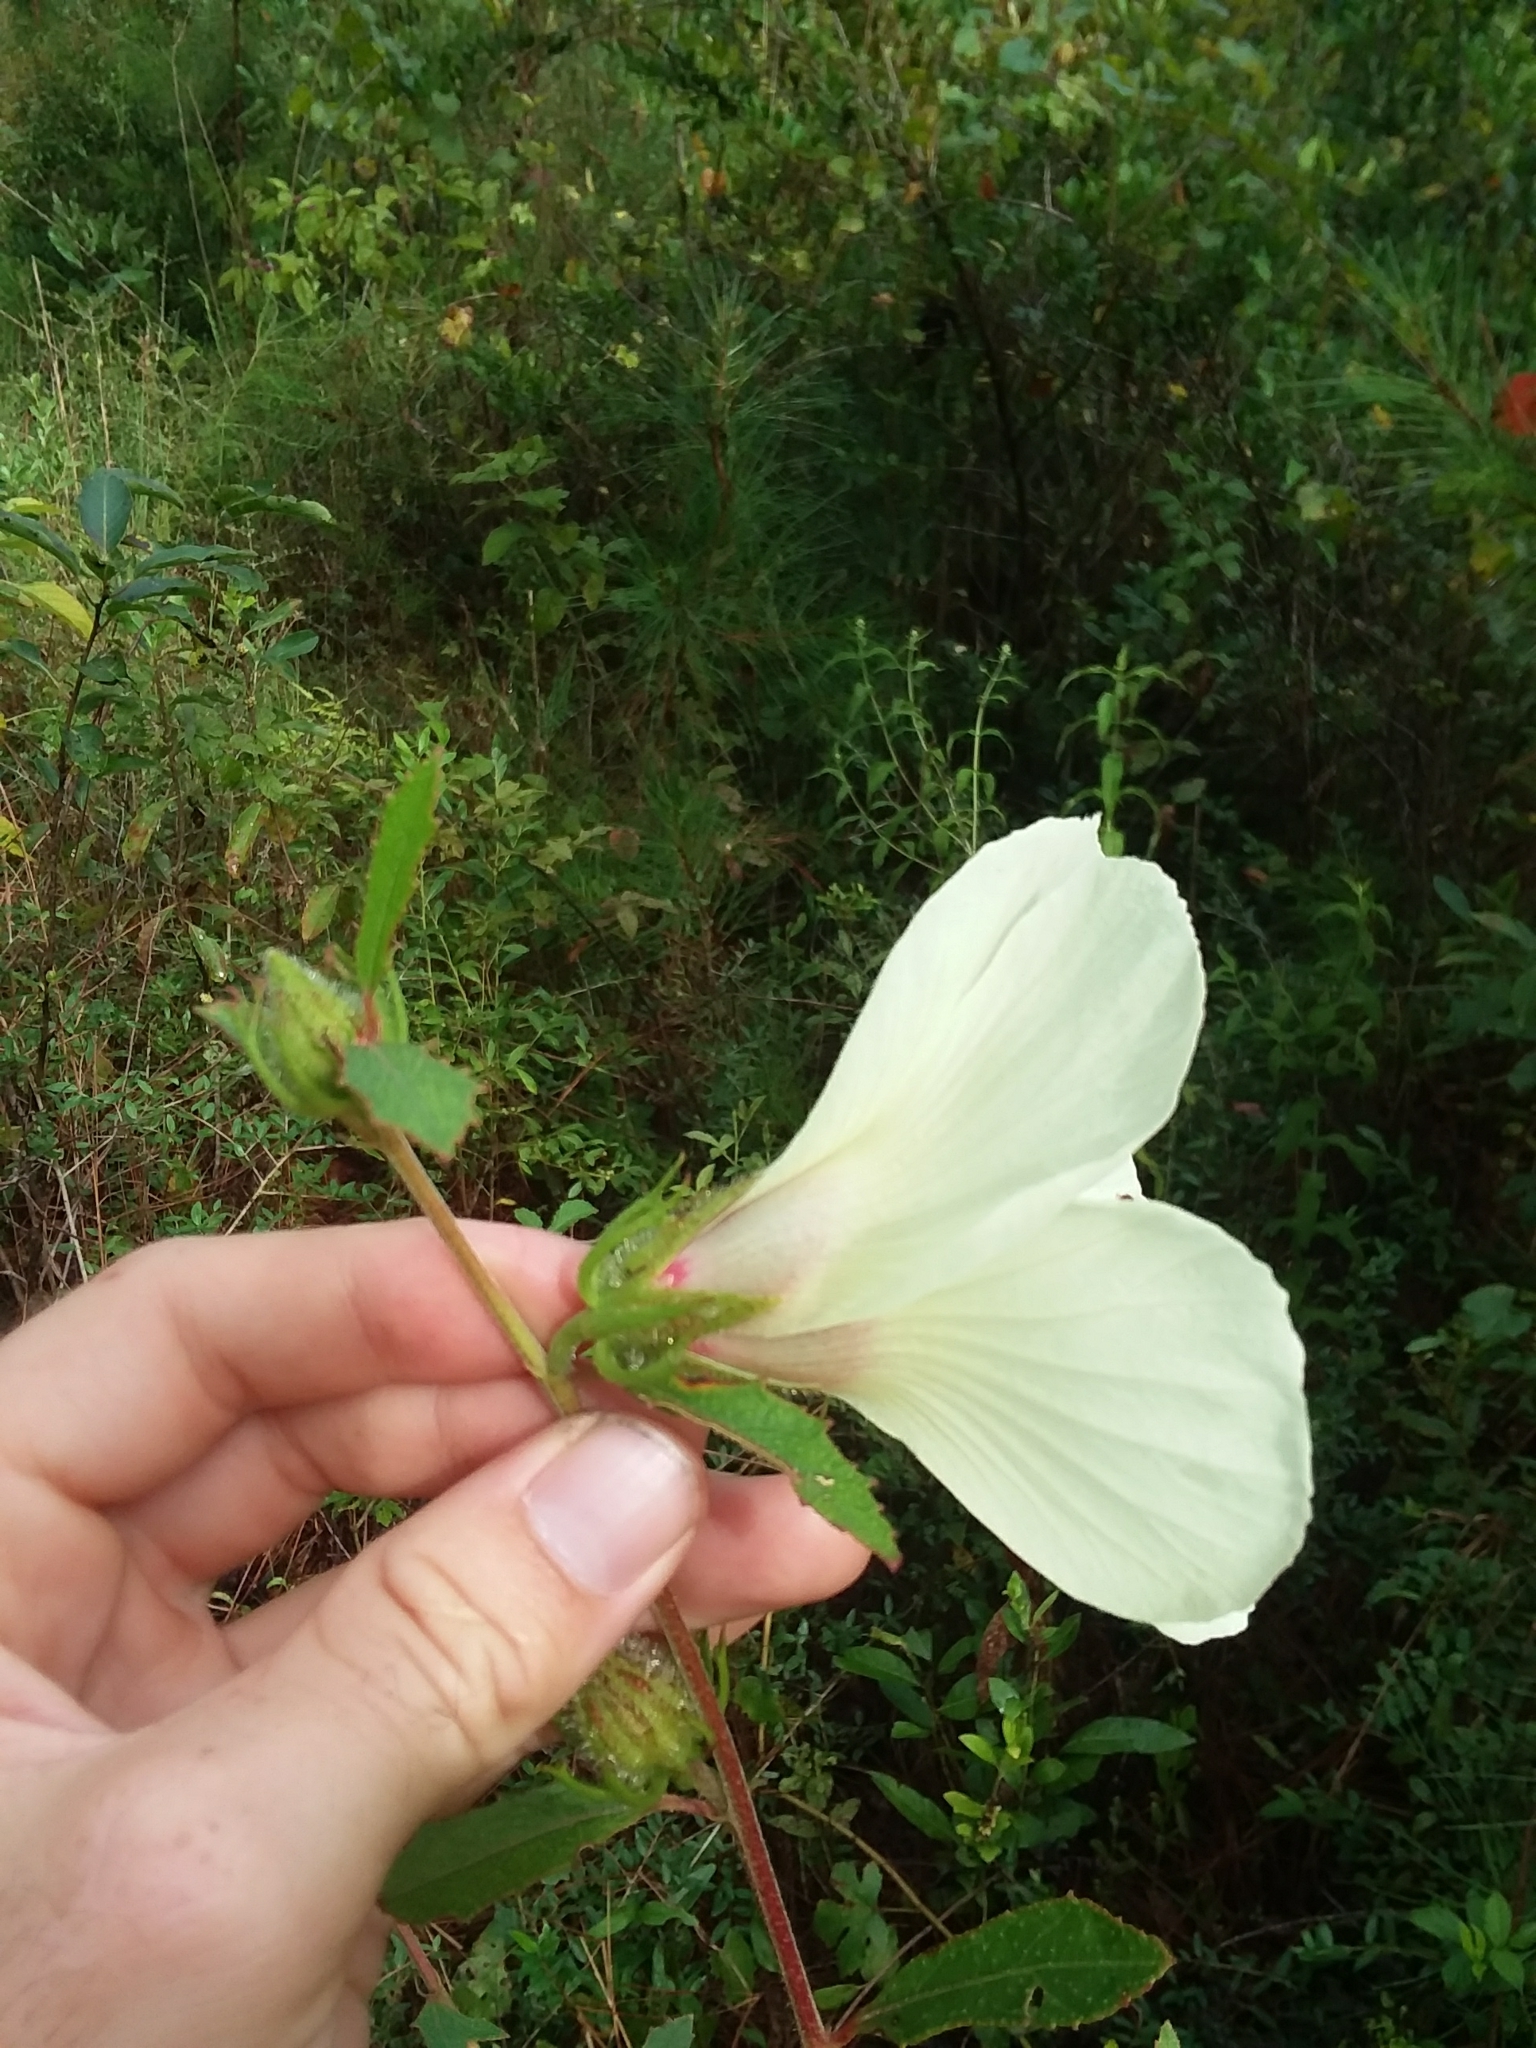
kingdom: Plantae
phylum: Tracheophyta
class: Magnoliopsida
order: Malvales
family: Malvaceae
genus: Hibiscus
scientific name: Hibiscus aculeatus
